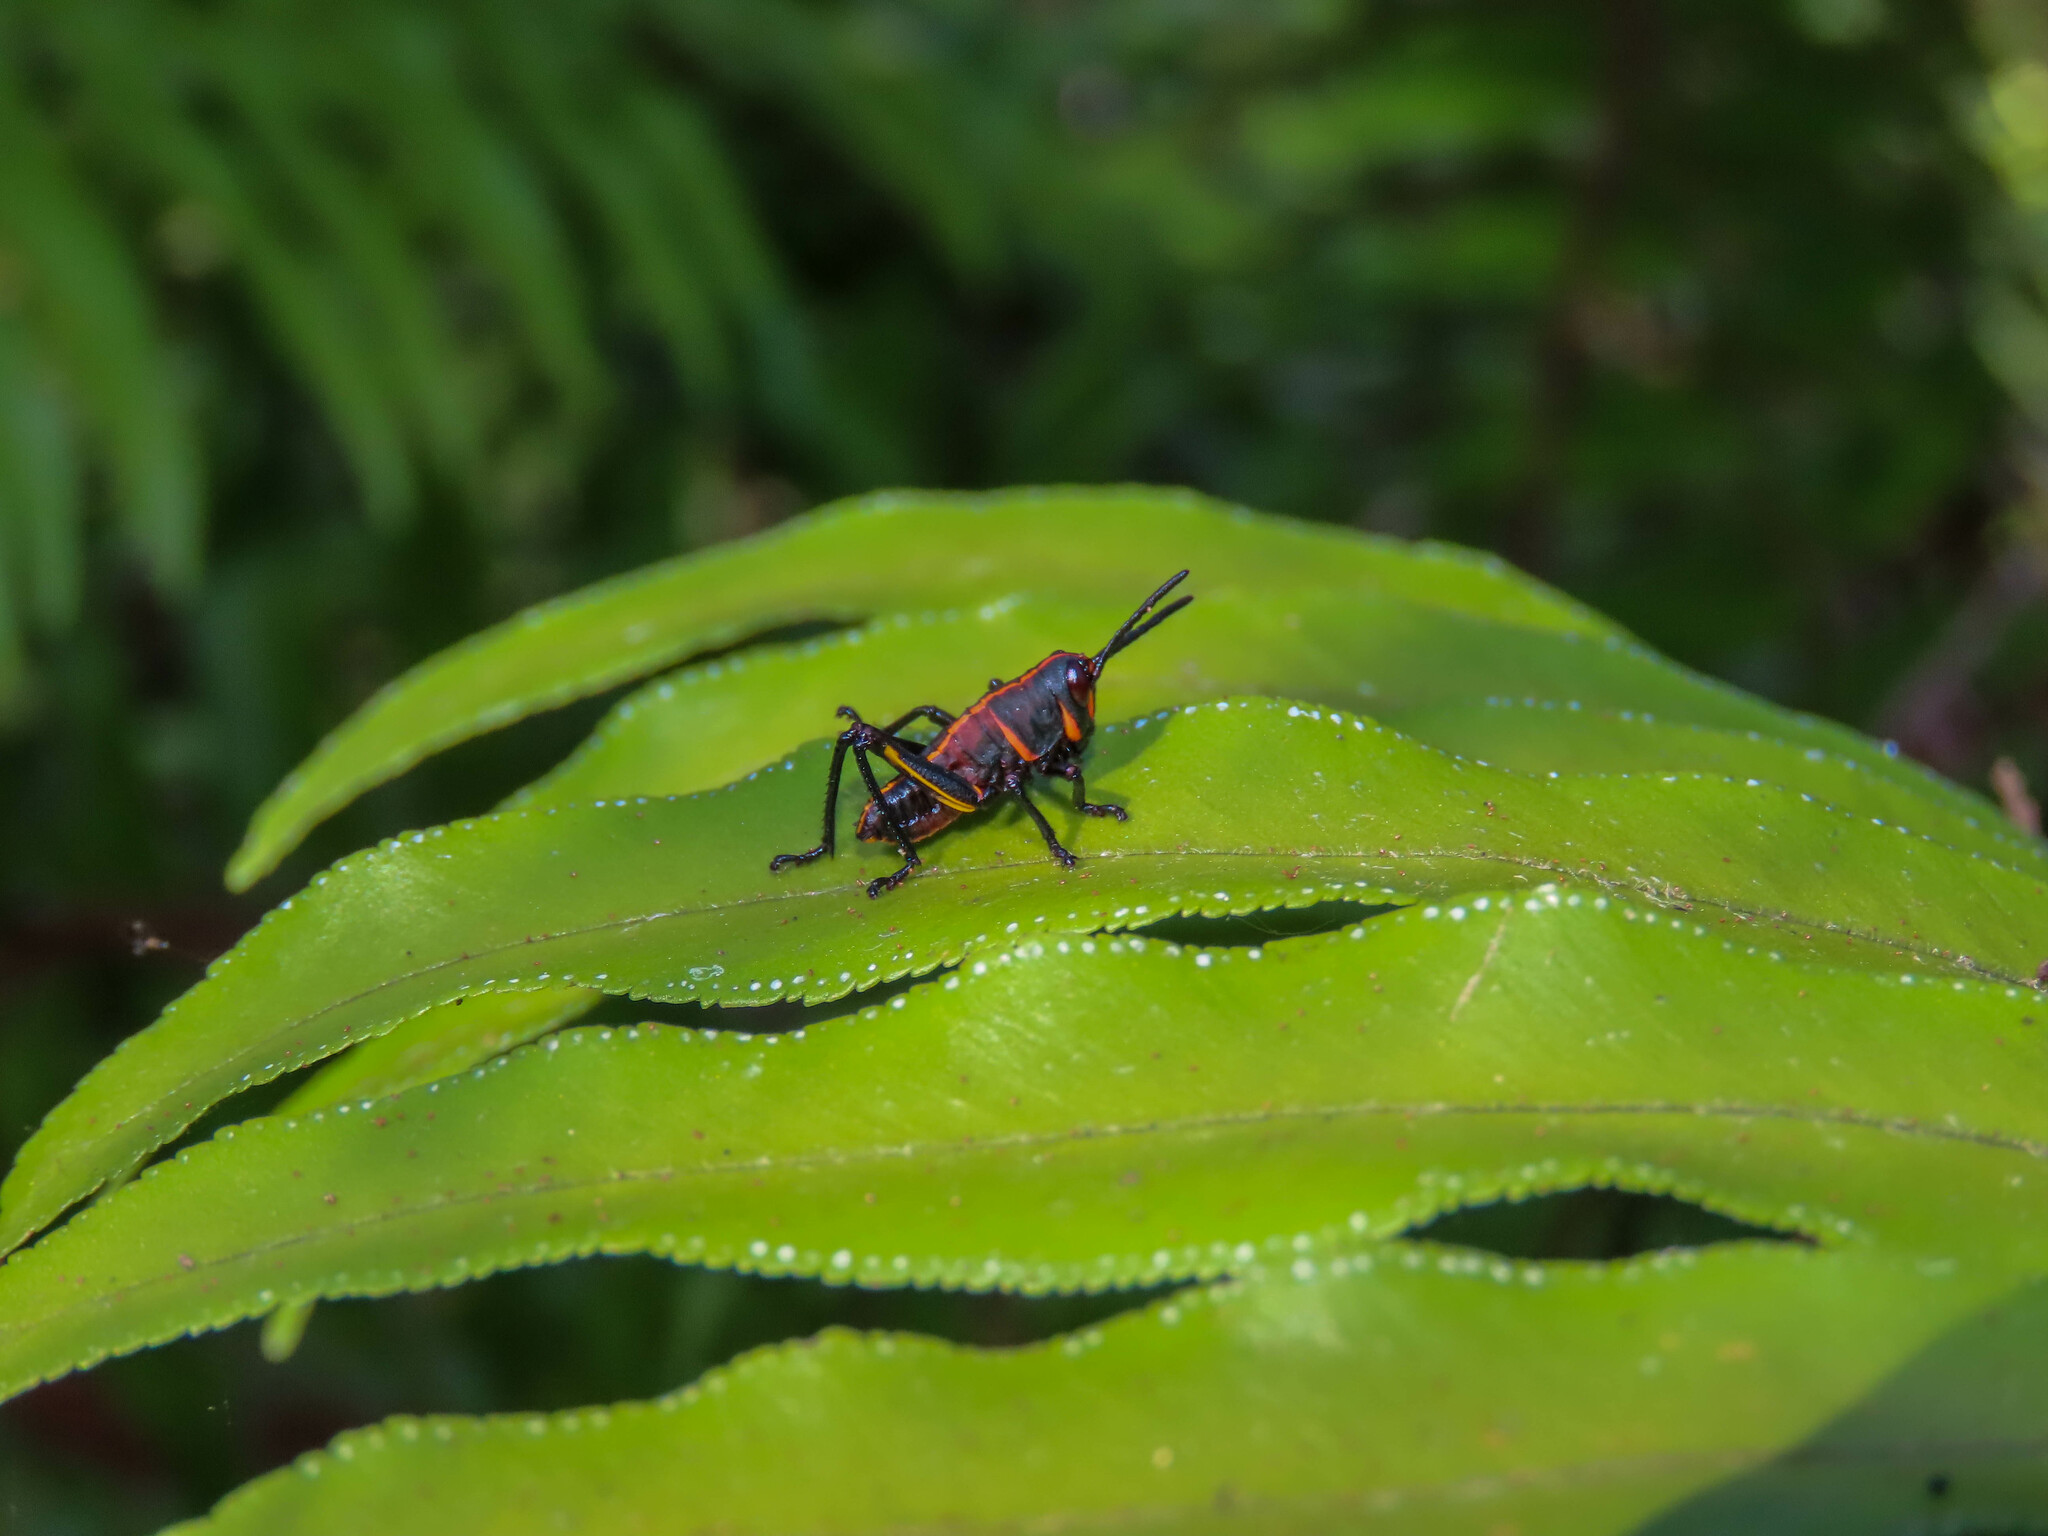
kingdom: Animalia
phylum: Arthropoda
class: Insecta
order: Orthoptera
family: Romaleidae
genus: Romalea
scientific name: Romalea microptera
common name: Eastern lubber grasshopper
